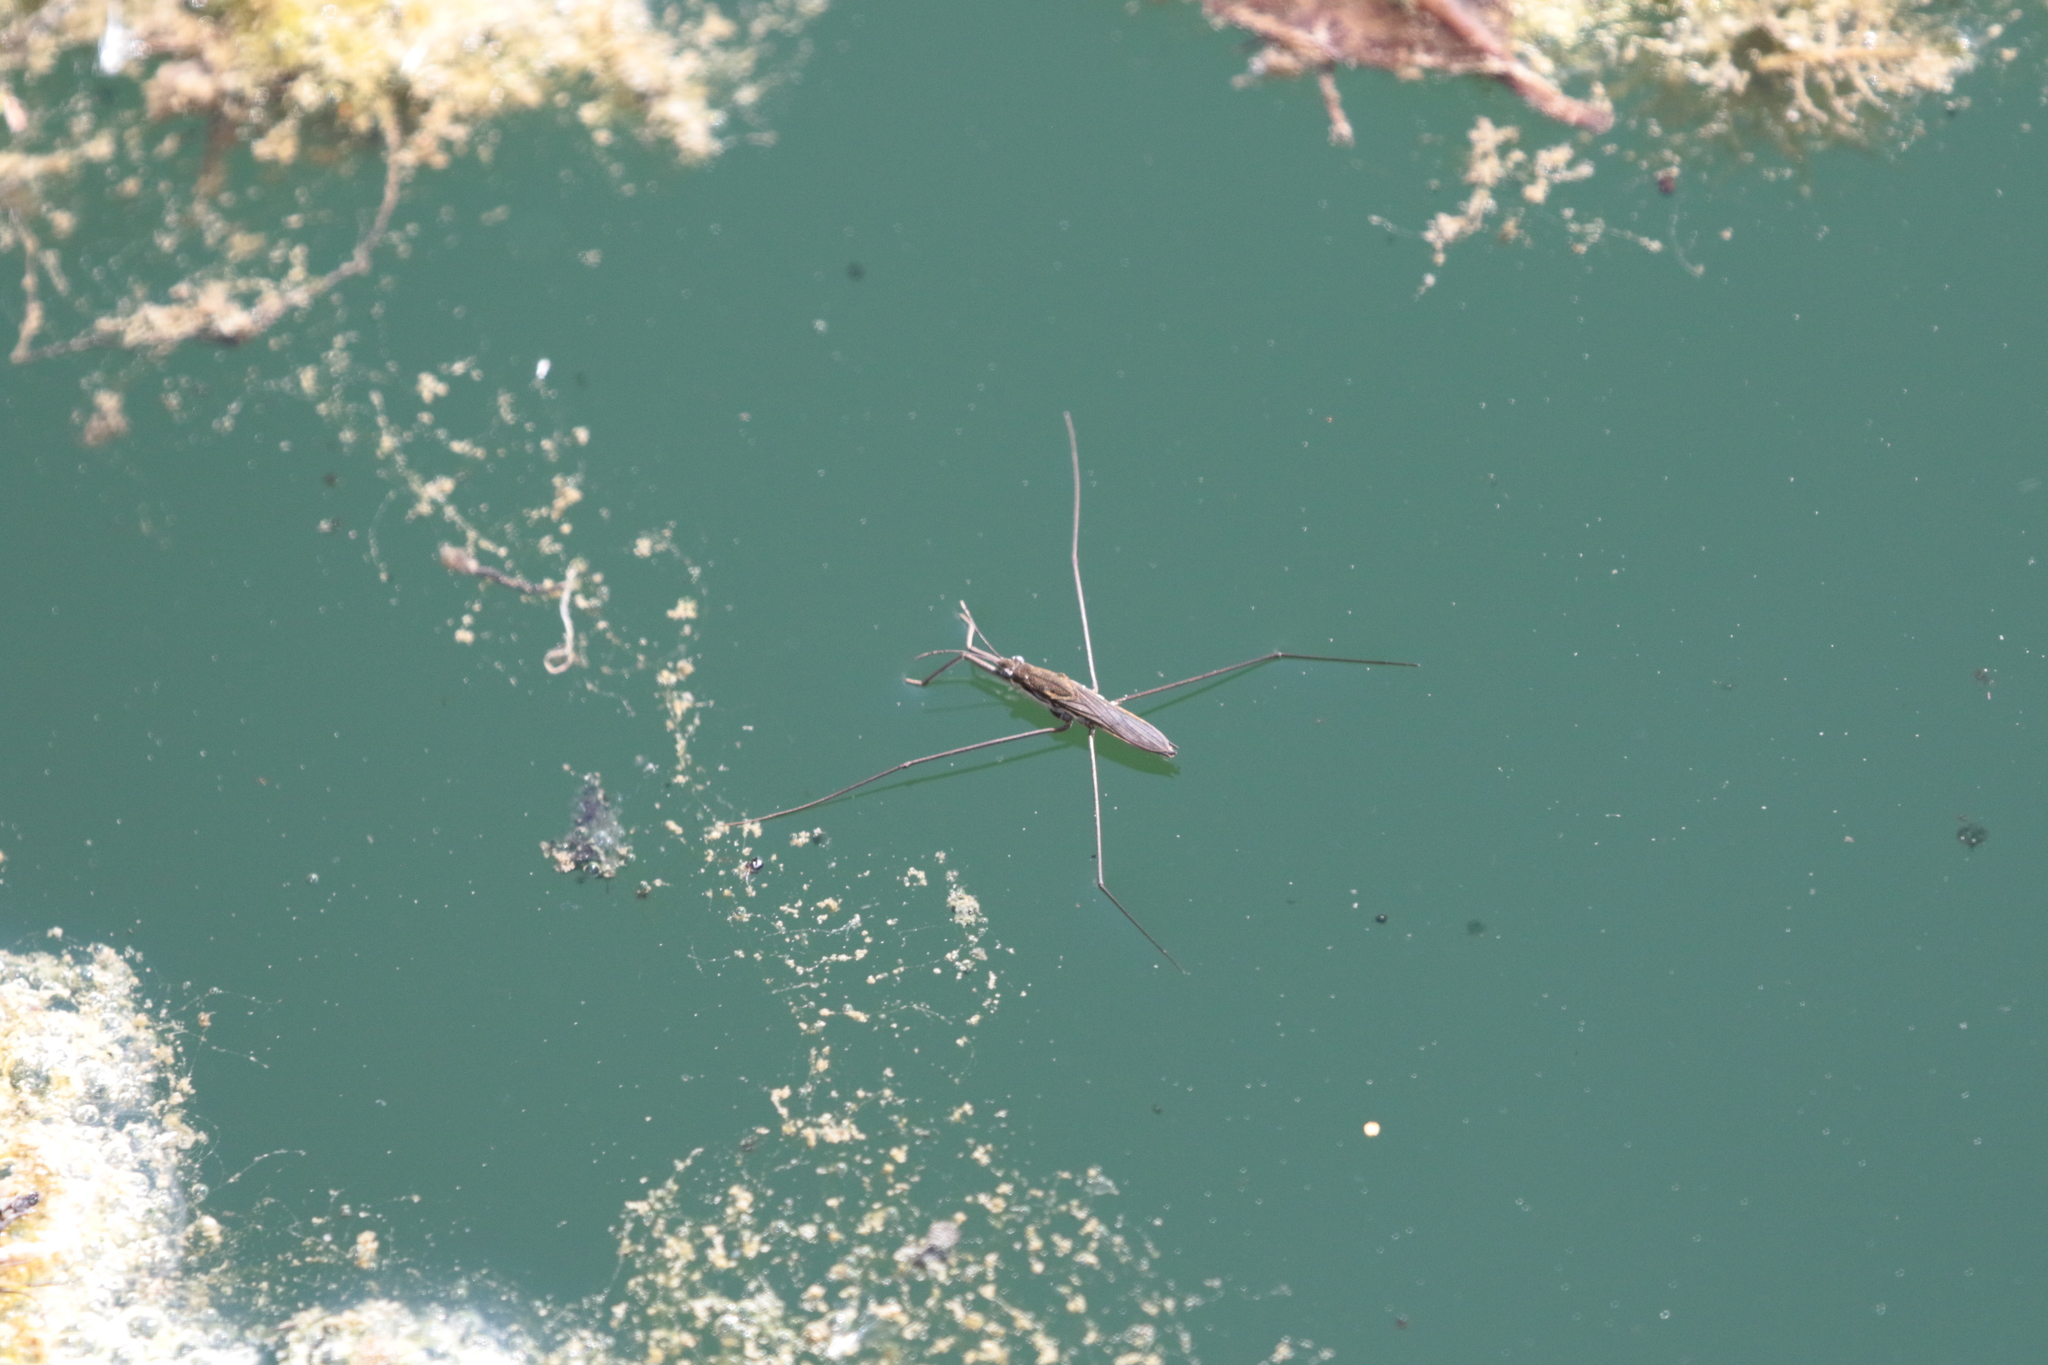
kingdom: Animalia
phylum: Arthropoda
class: Insecta
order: Hemiptera
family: Gerridae
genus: Aquarius
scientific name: Aquarius paludum
